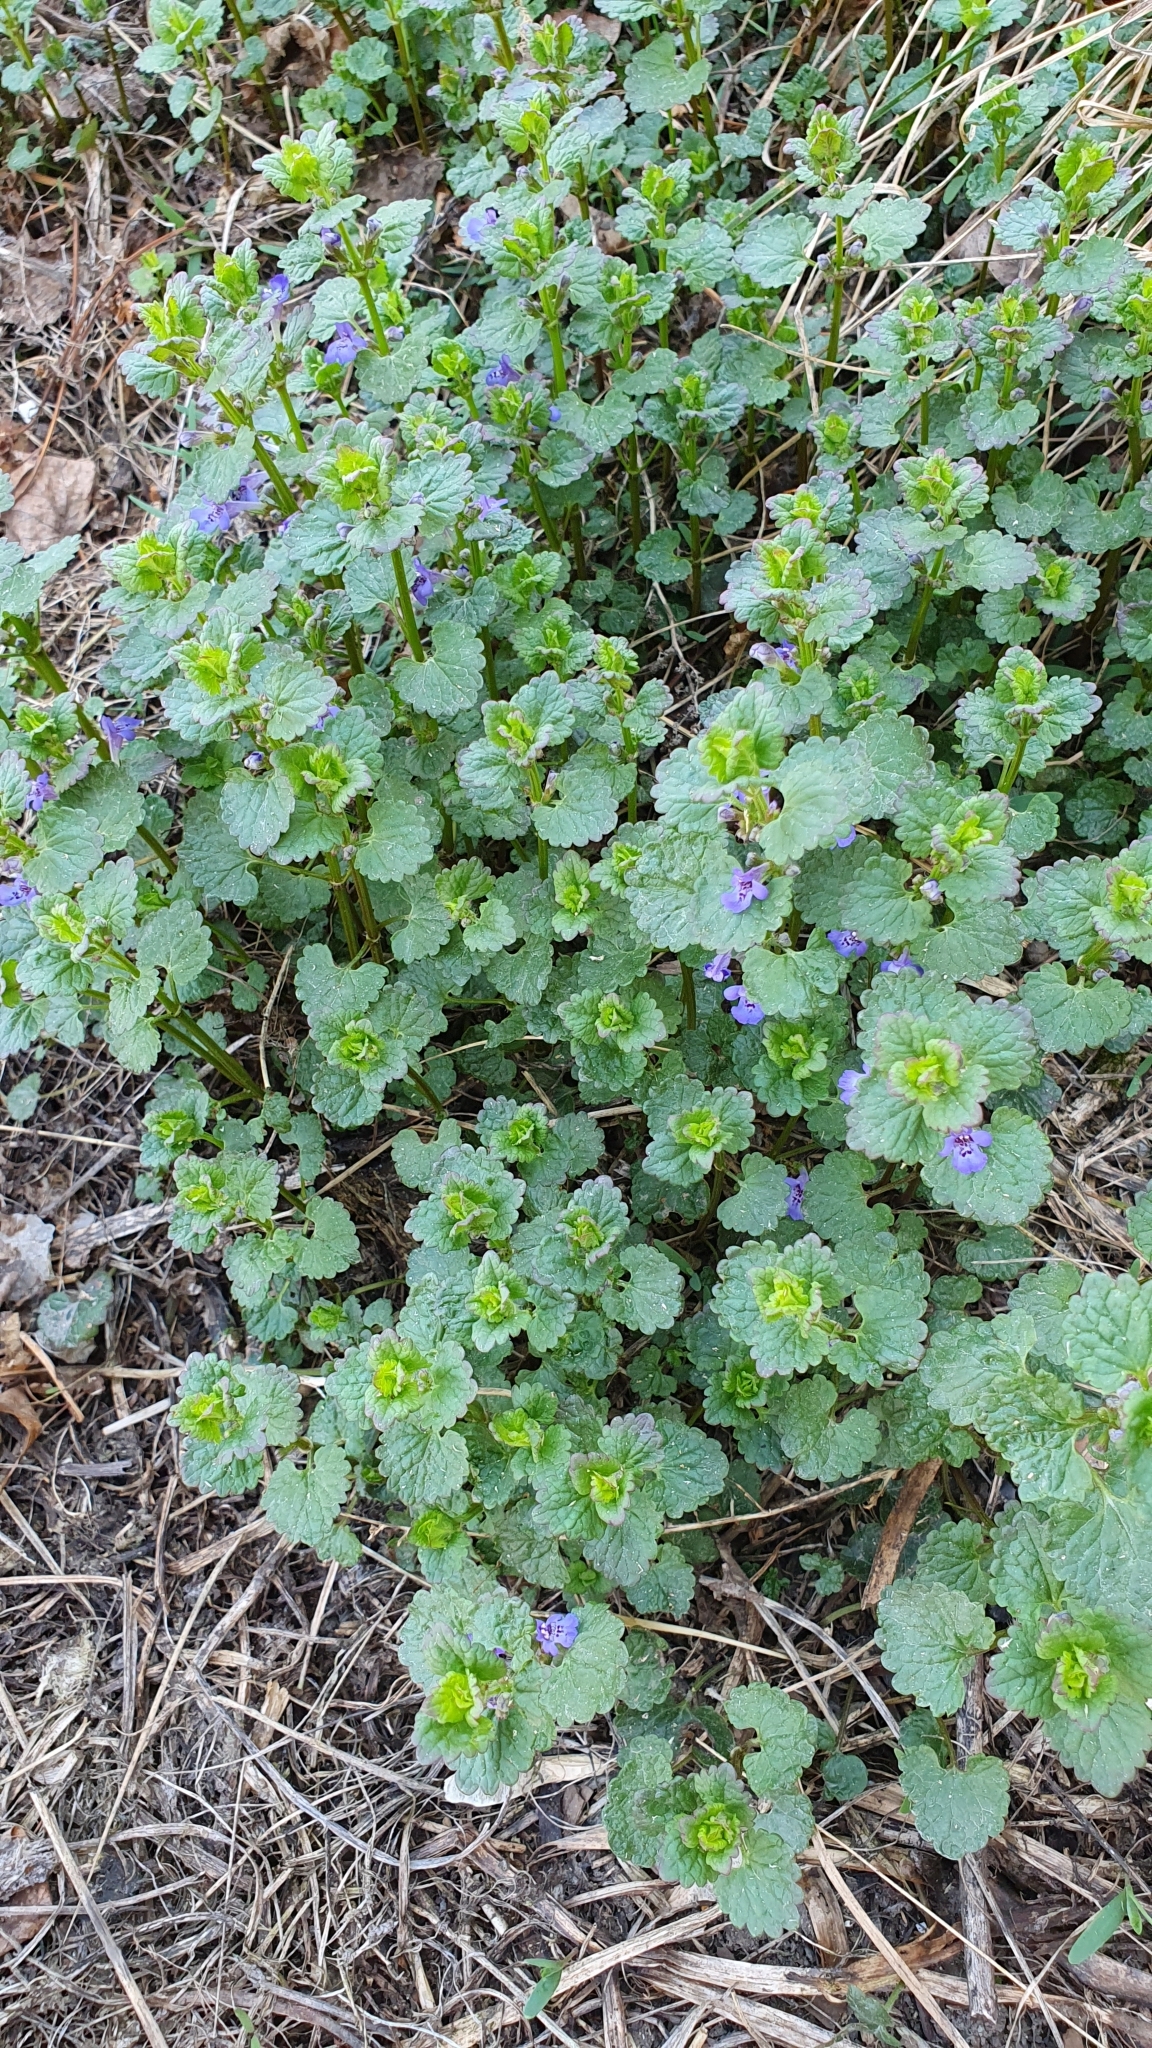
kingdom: Plantae
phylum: Tracheophyta
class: Magnoliopsida
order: Lamiales
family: Lamiaceae
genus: Glechoma
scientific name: Glechoma hederacea
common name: Ground ivy
